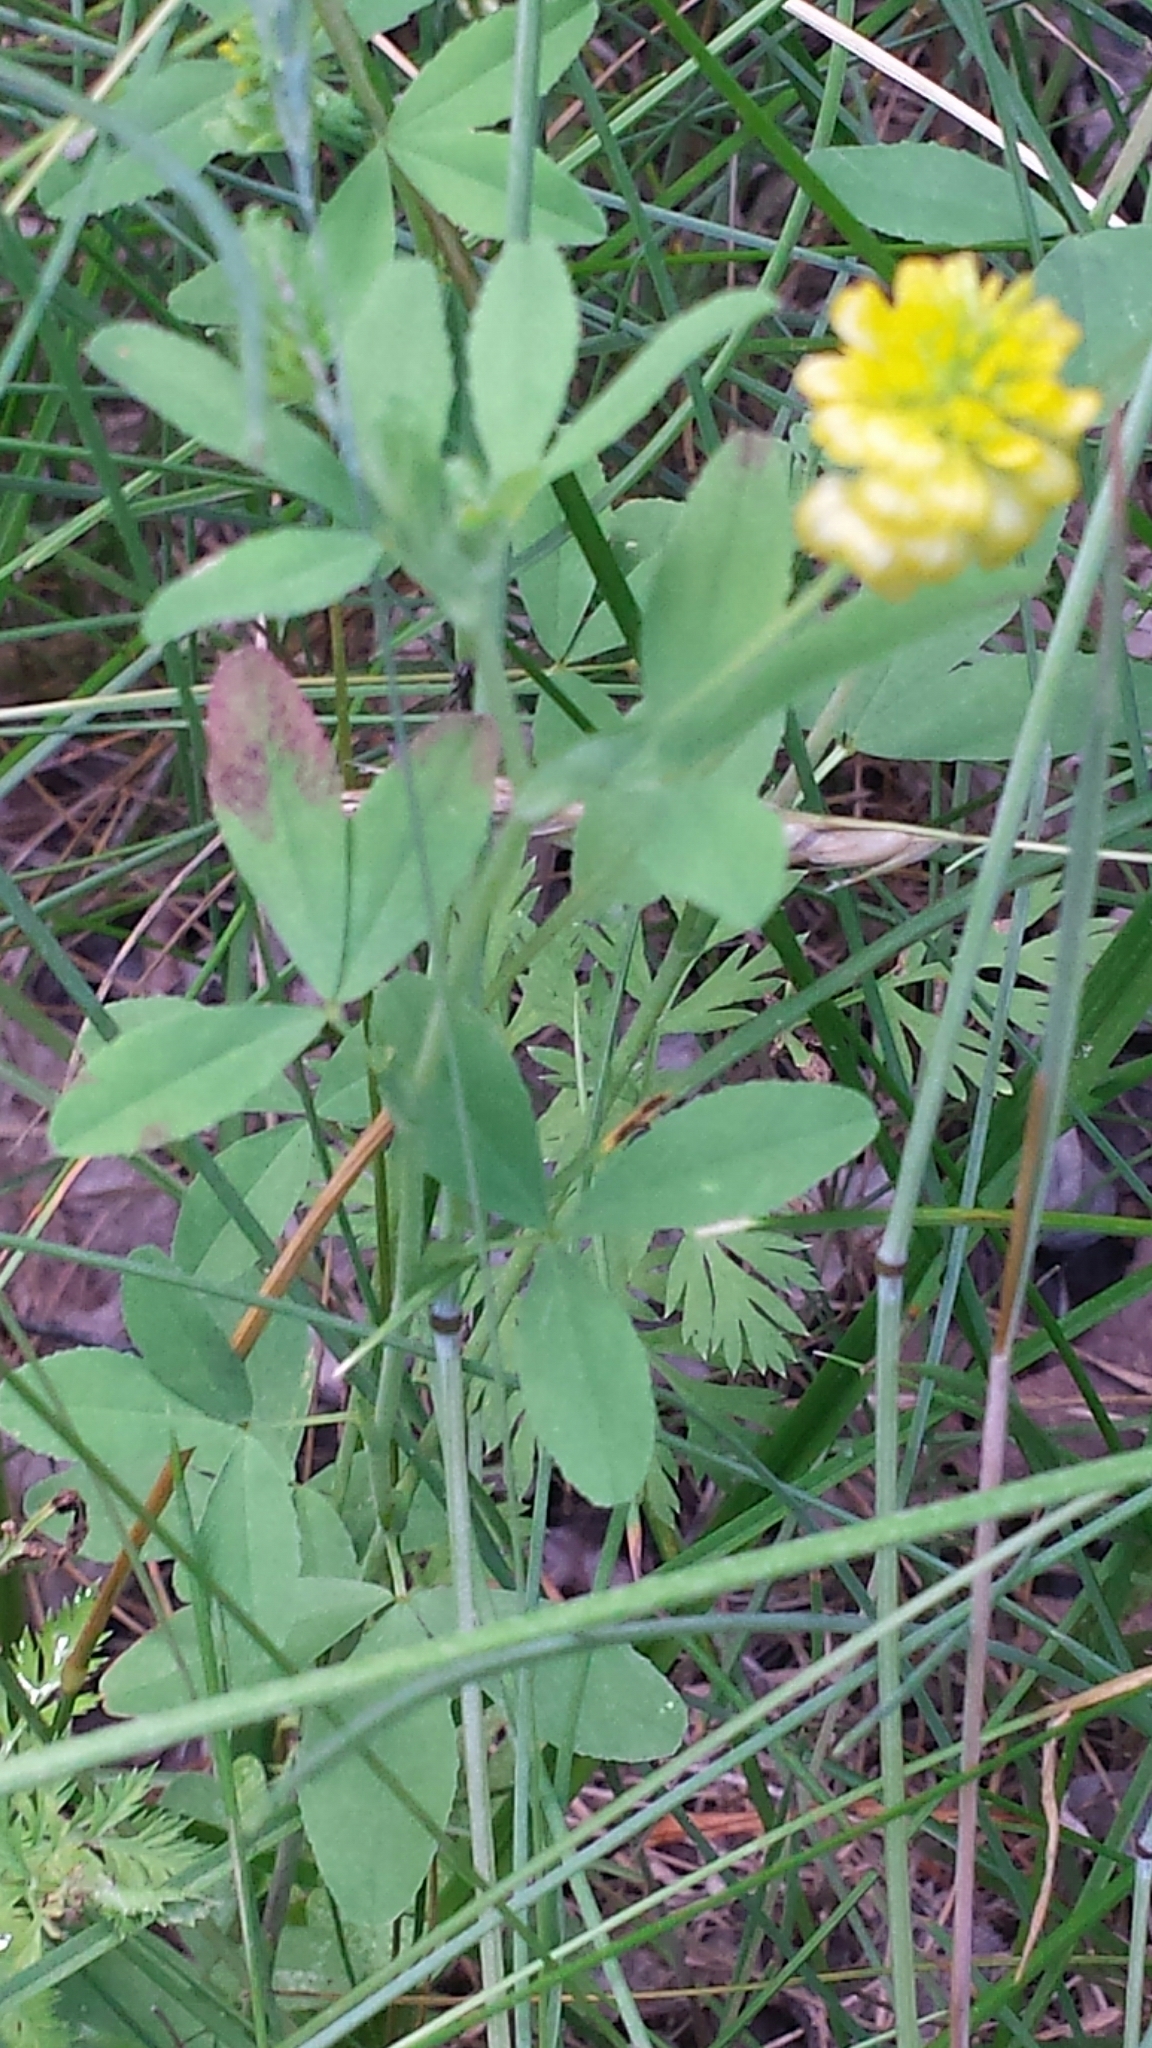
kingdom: Plantae
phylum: Tracheophyta
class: Magnoliopsida
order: Fabales
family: Fabaceae
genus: Trifolium
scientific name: Trifolium aureum
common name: Golden clover
